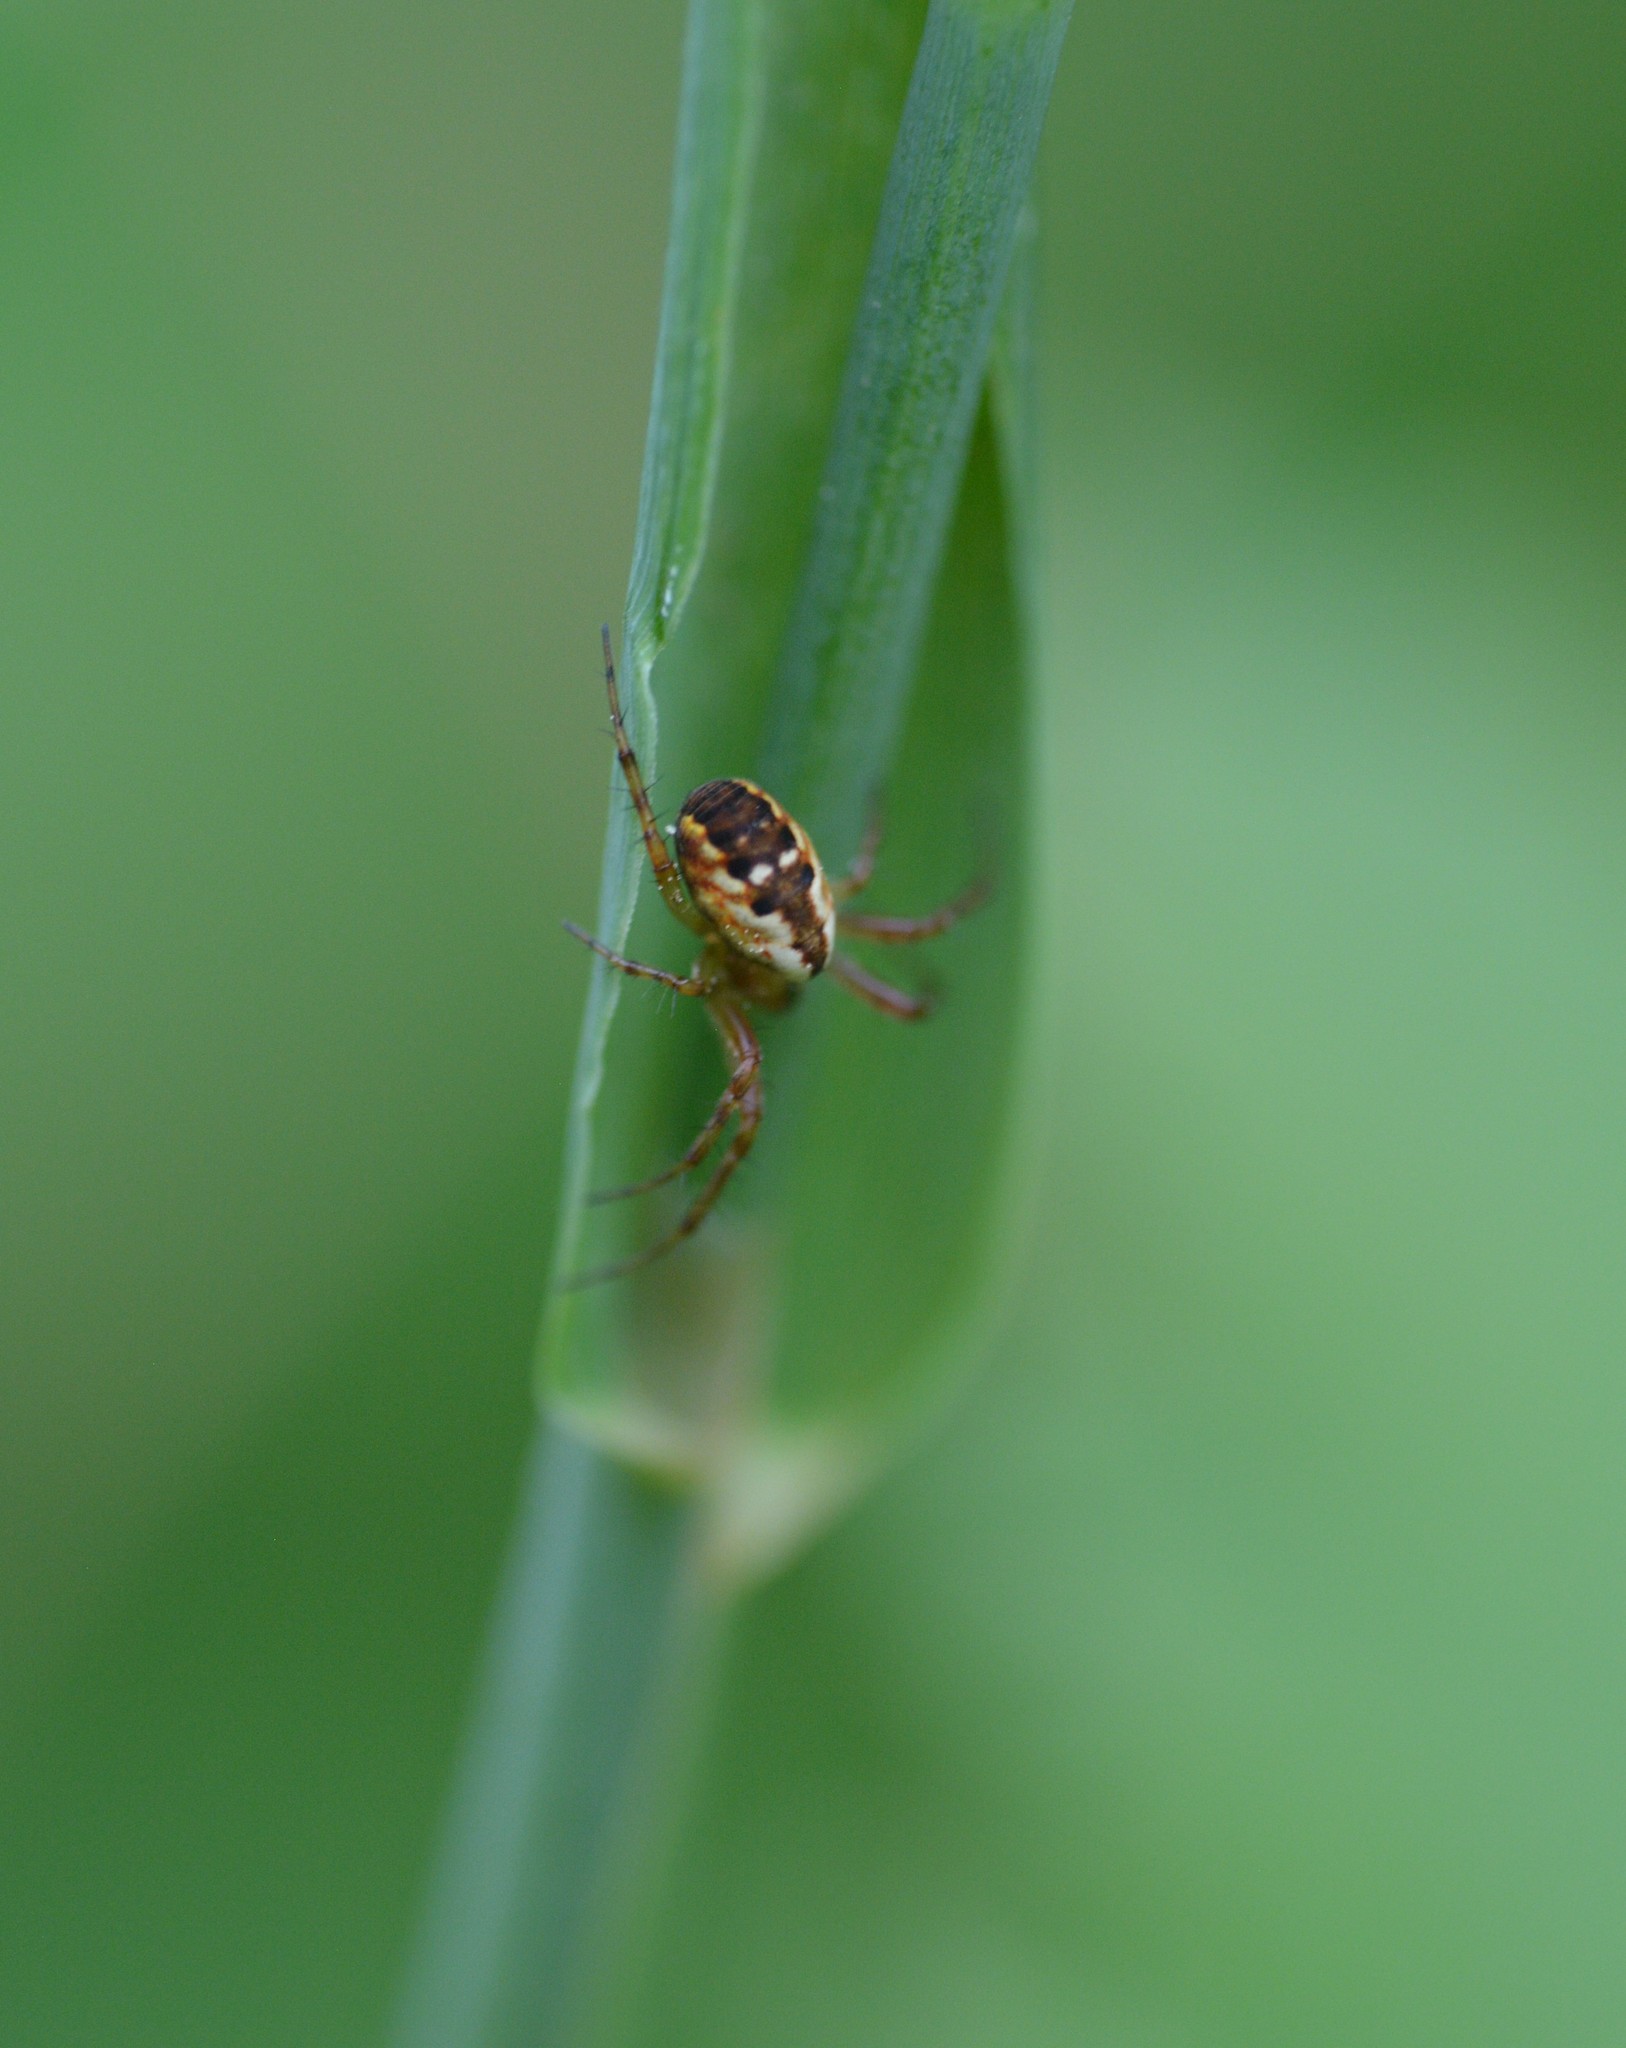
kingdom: Animalia
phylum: Arthropoda
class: Arachnida
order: Araneae
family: Araneidae
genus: Mangora
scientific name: Mangora placida
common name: Tuft-legged orbweaver
